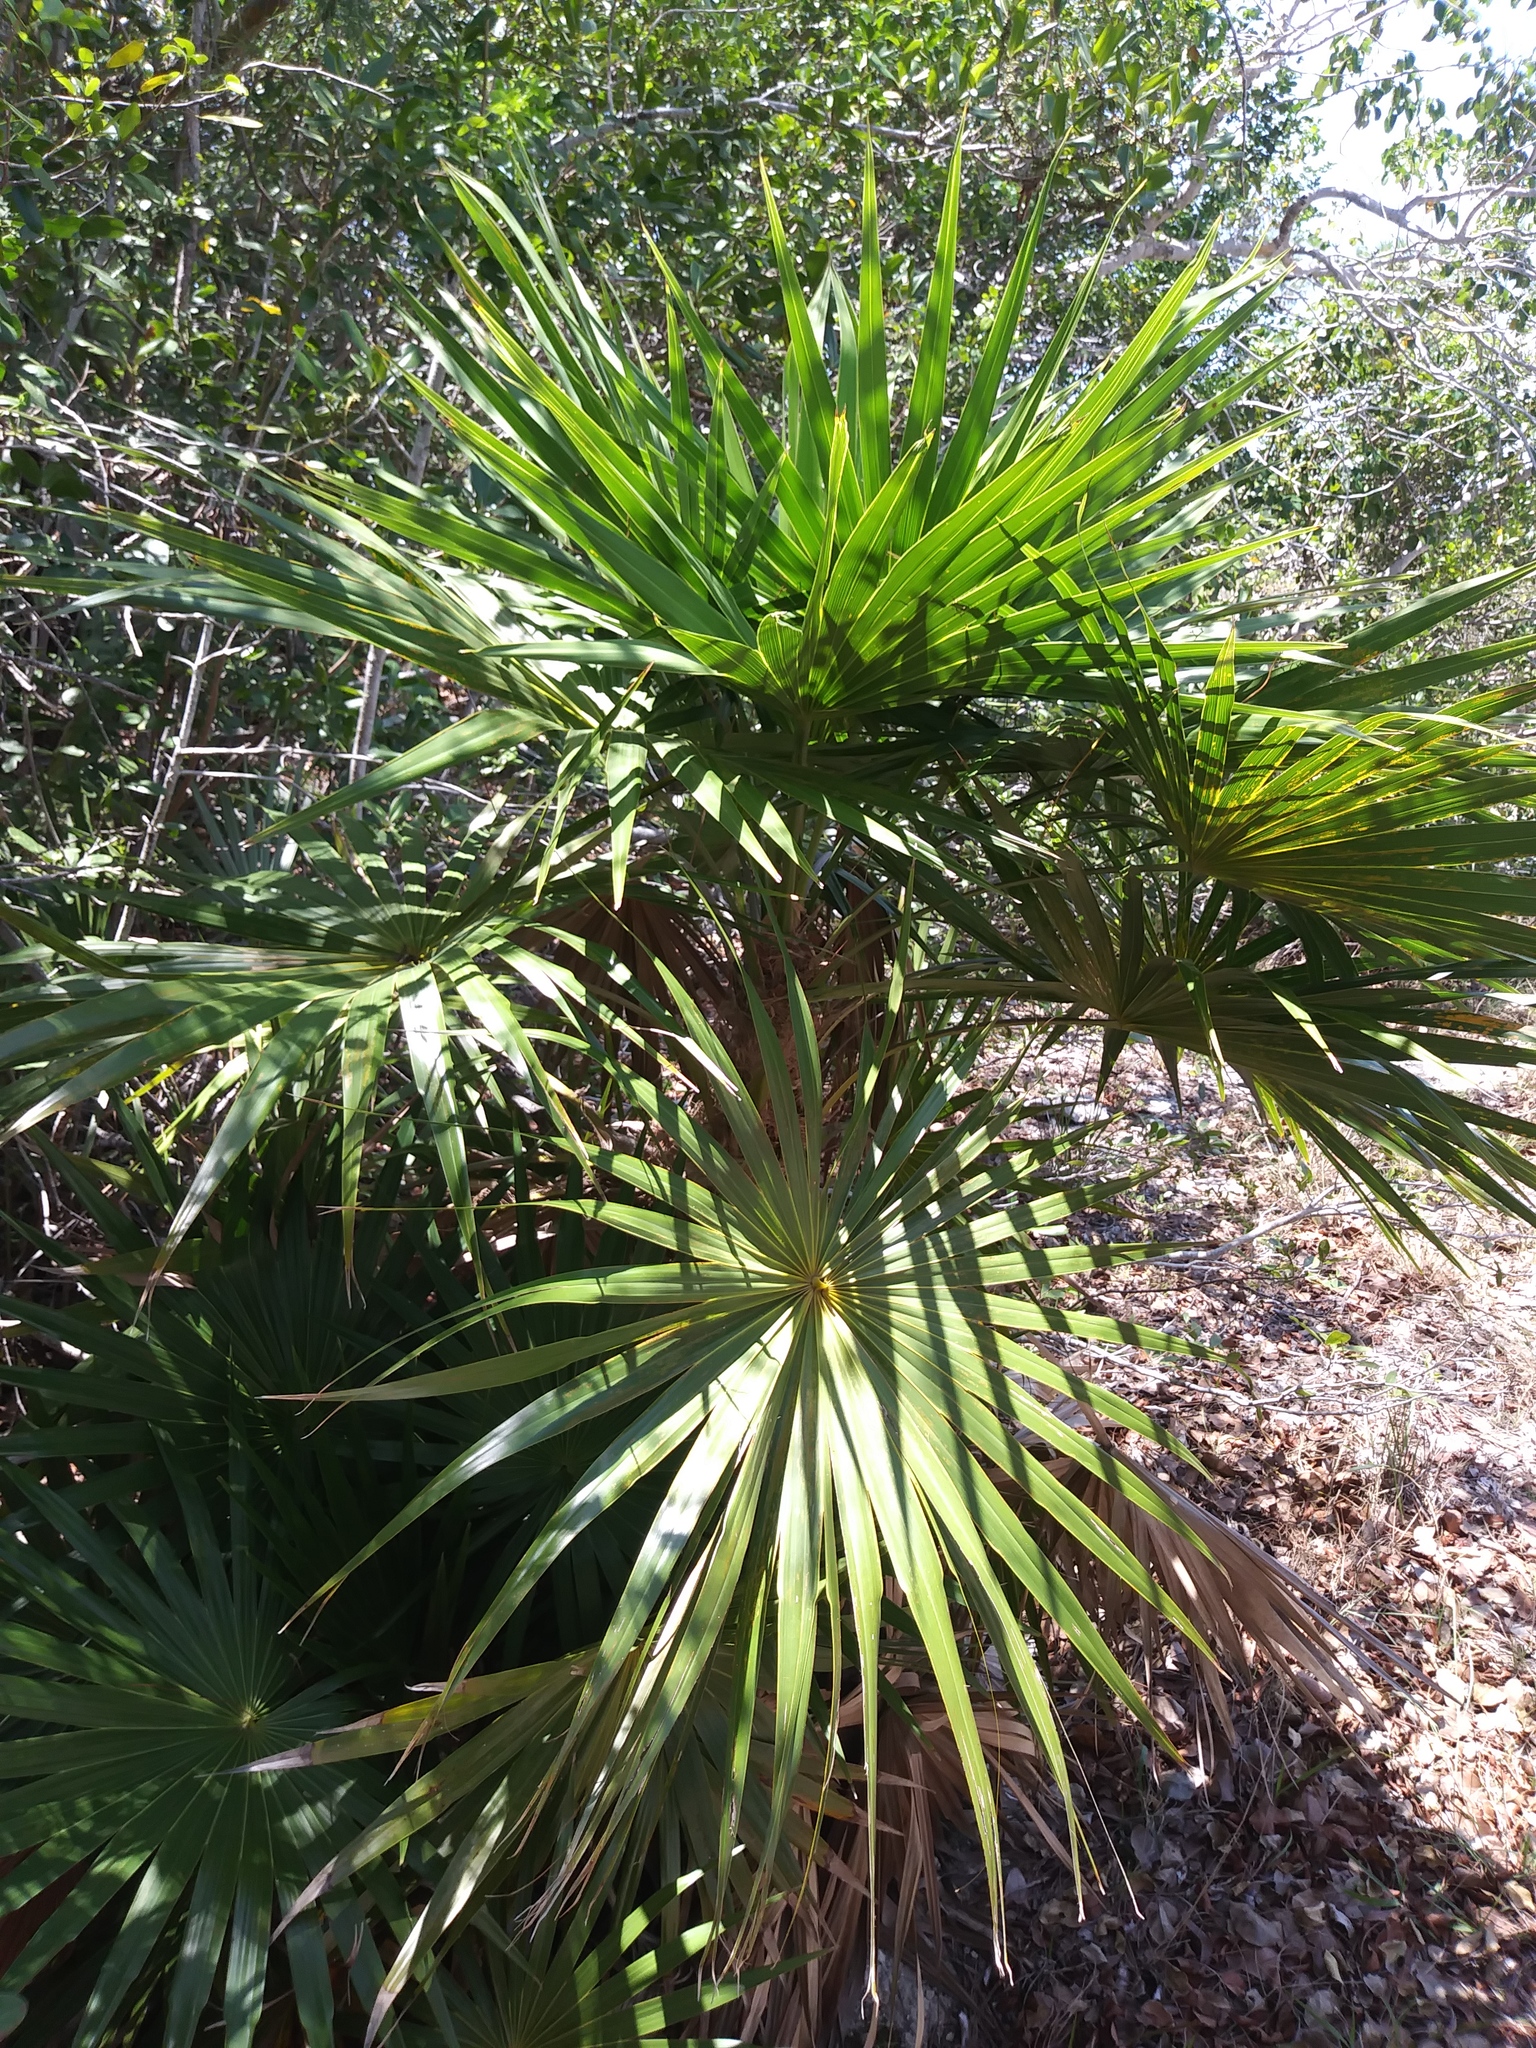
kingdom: Plantae
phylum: Tracheophyta
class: Liliopsida
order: Arecales
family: Arecaceae
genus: Thrinax
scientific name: Thrinax radiata
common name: Florida thatch
